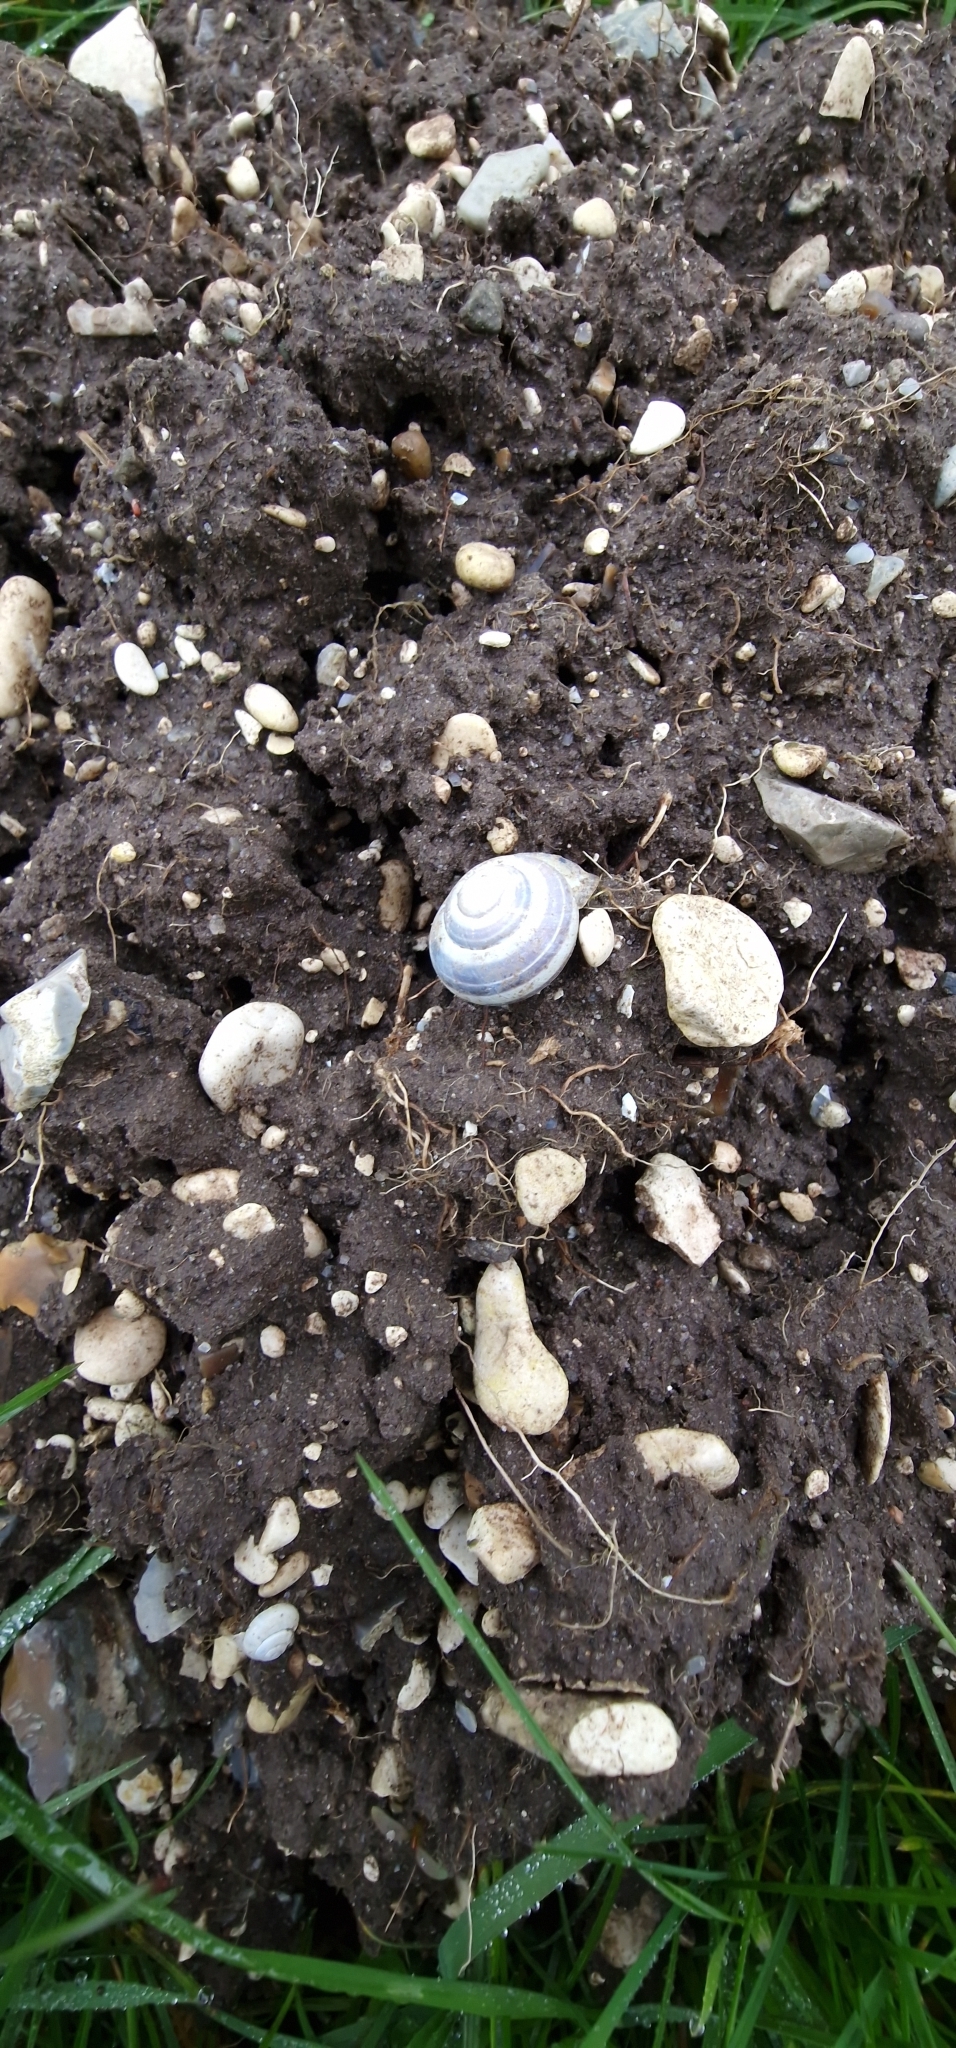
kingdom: Animalia
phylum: Mollusca
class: Gastropoda
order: Stylommatophora
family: Helicidae
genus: Cepaea
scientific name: Cepaea nemoralis
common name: Grovesnail
